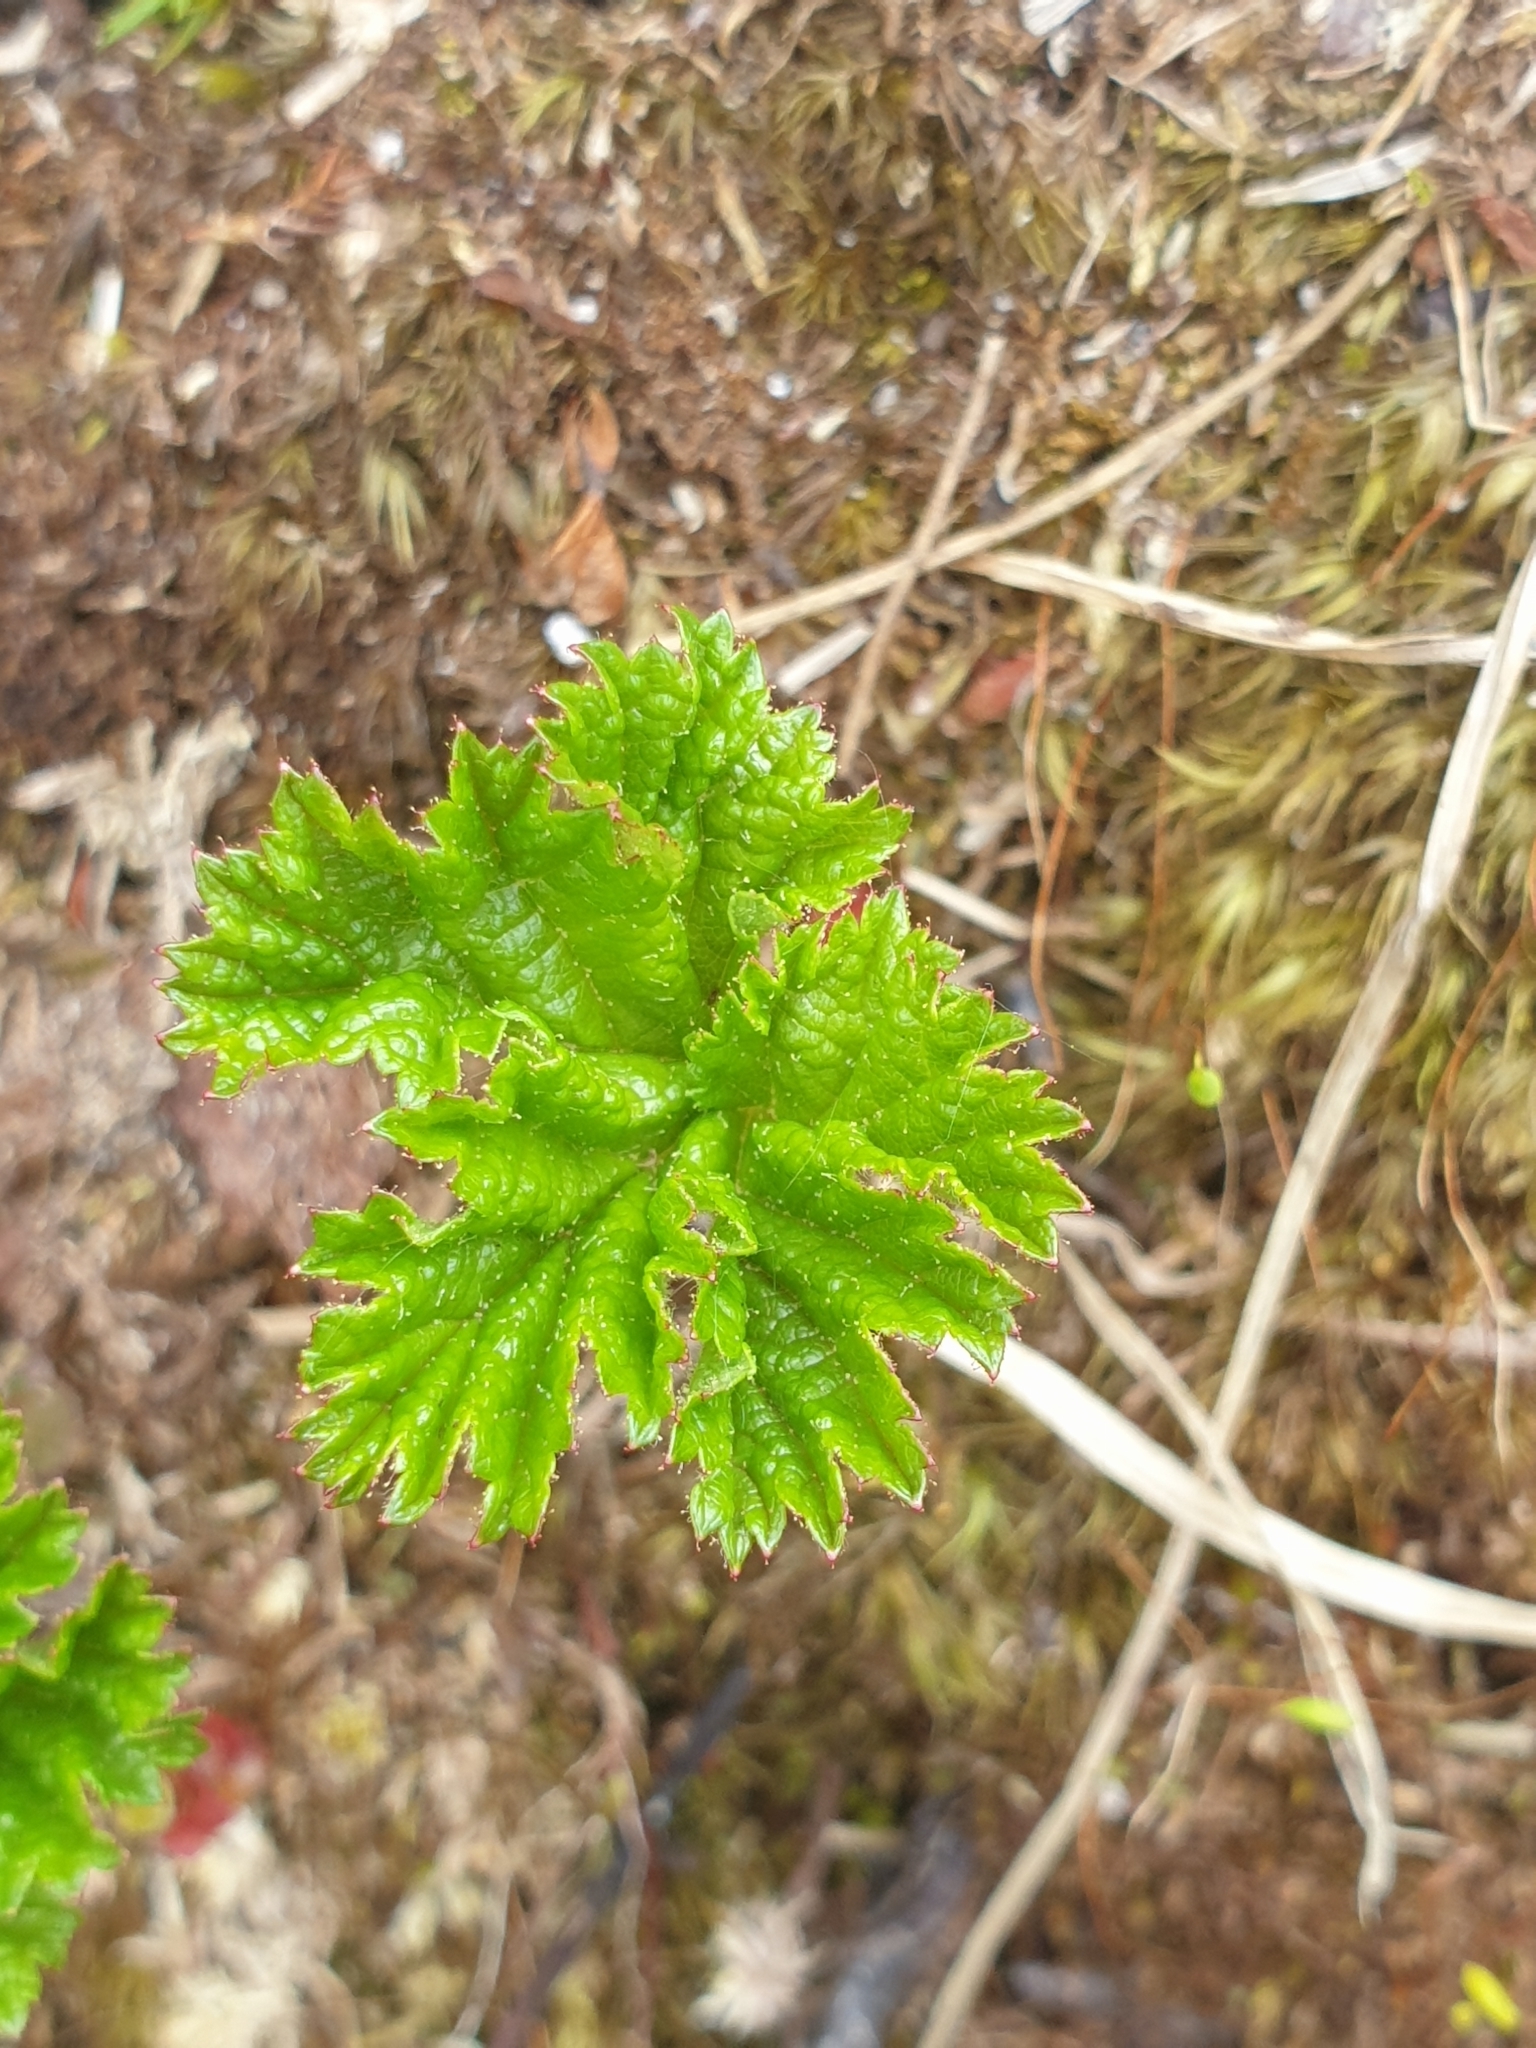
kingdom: Plantae
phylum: Tracheophyta
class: Magnoliopsida
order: Rosales
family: Rosaceae
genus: Rubus
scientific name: Rubus chamaemorus
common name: Cloudberry
